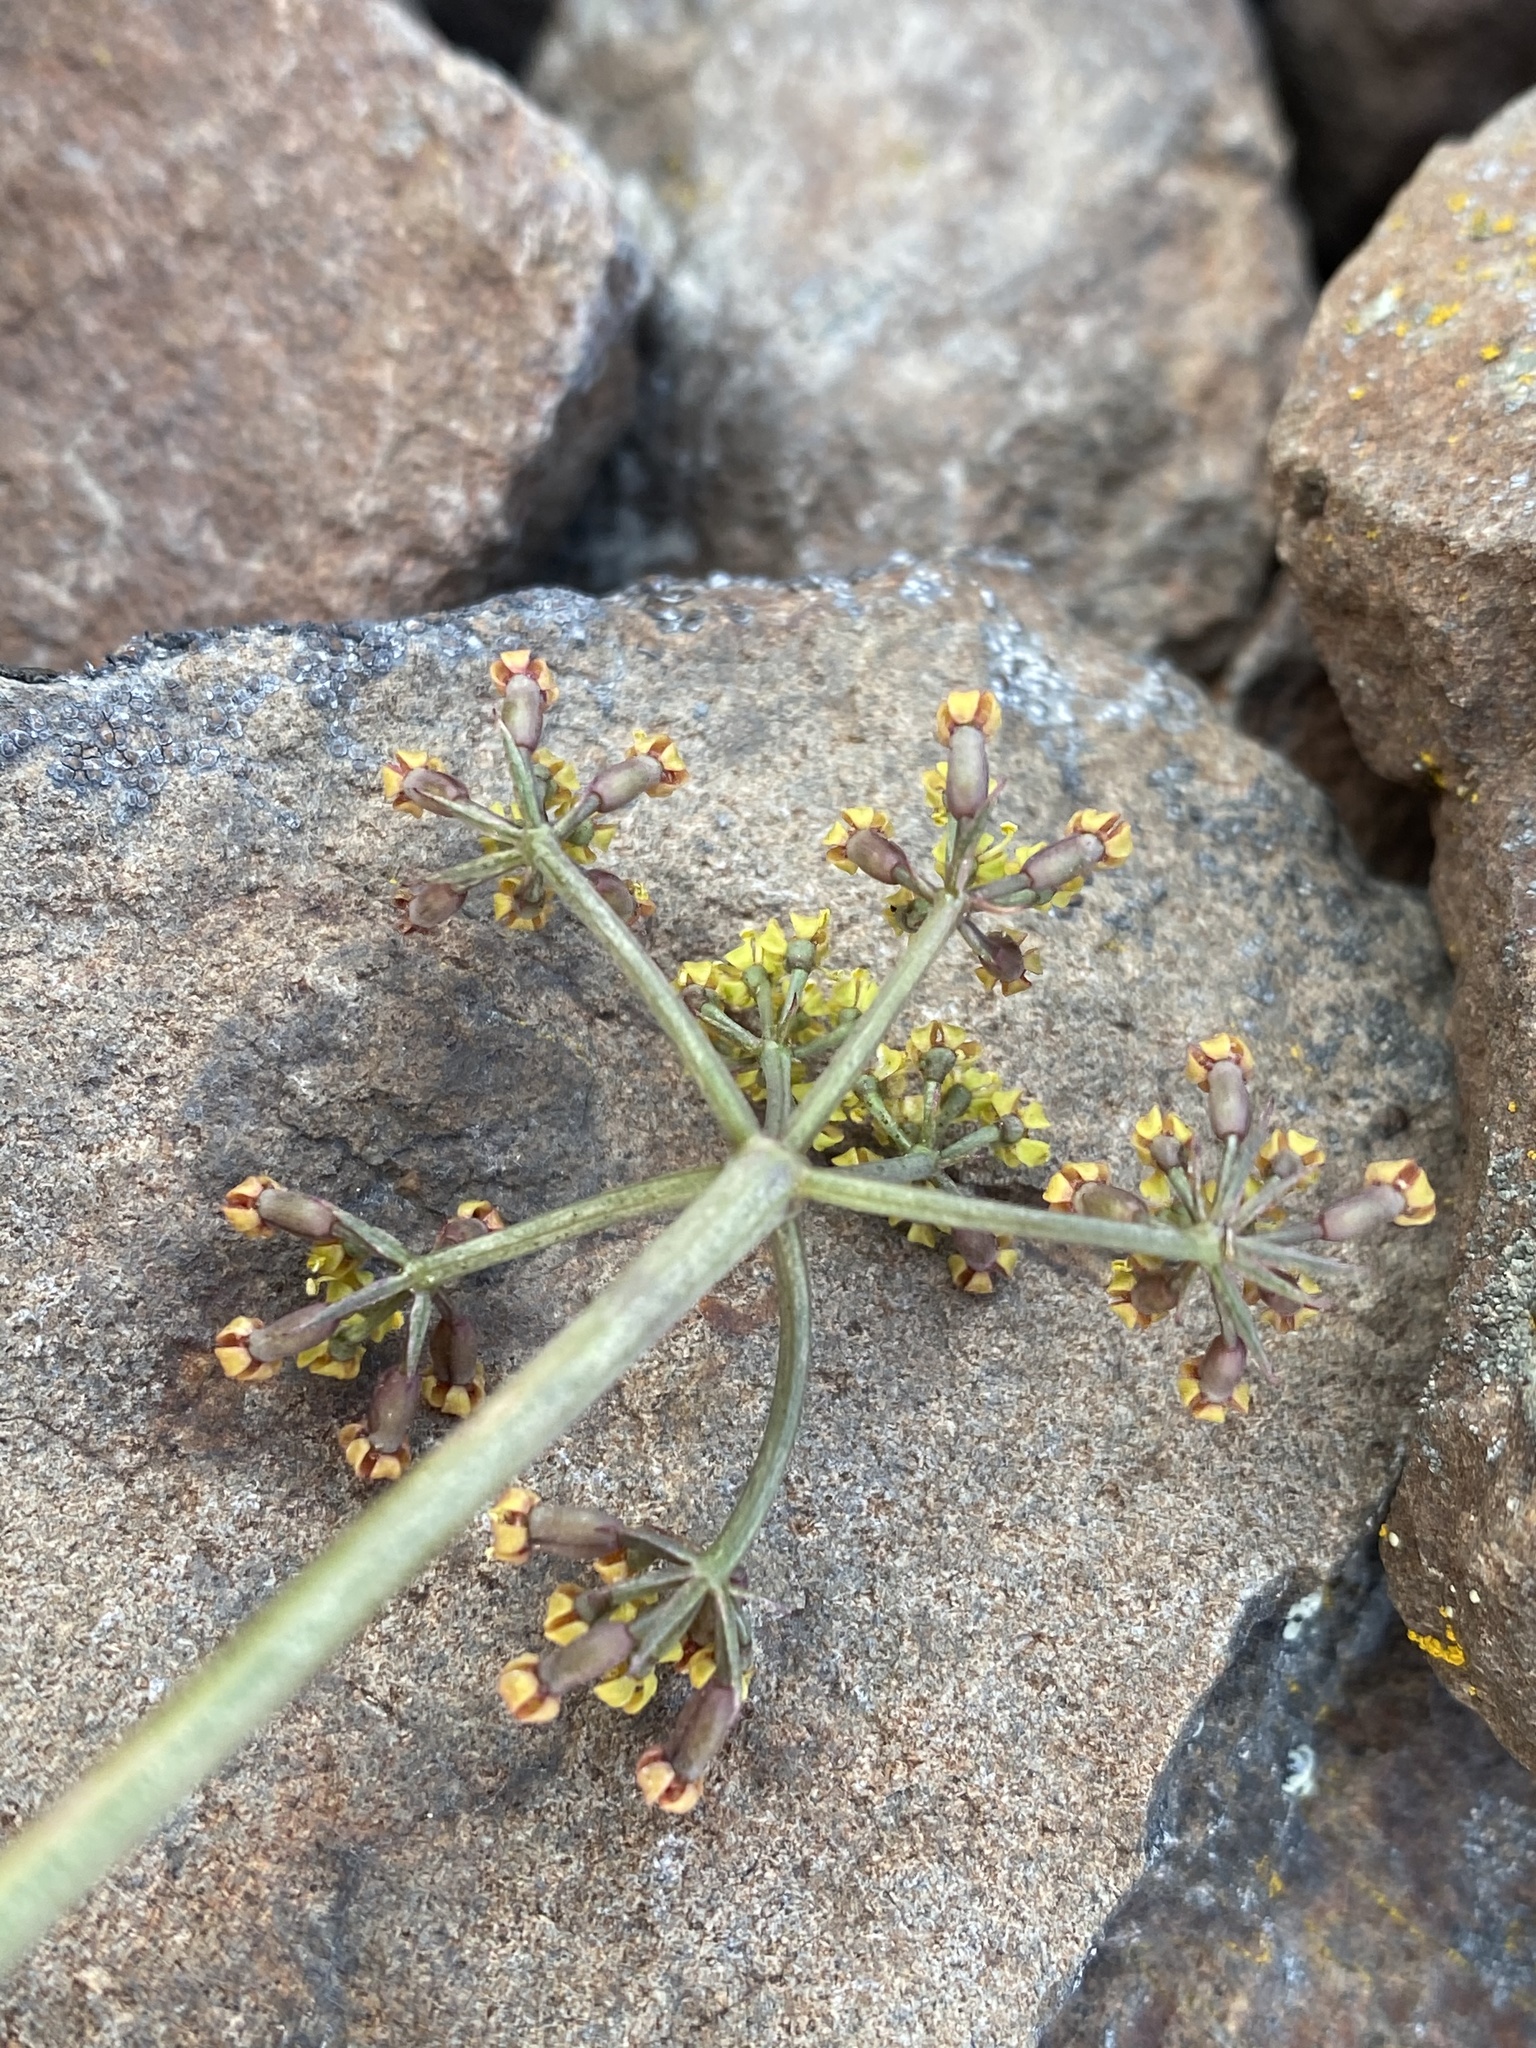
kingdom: Plantae
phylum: Tracheophyta
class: Magnoliopsida
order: Apiales
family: Apiaceae
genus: Lomatium
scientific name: Lomatium tuberosum
